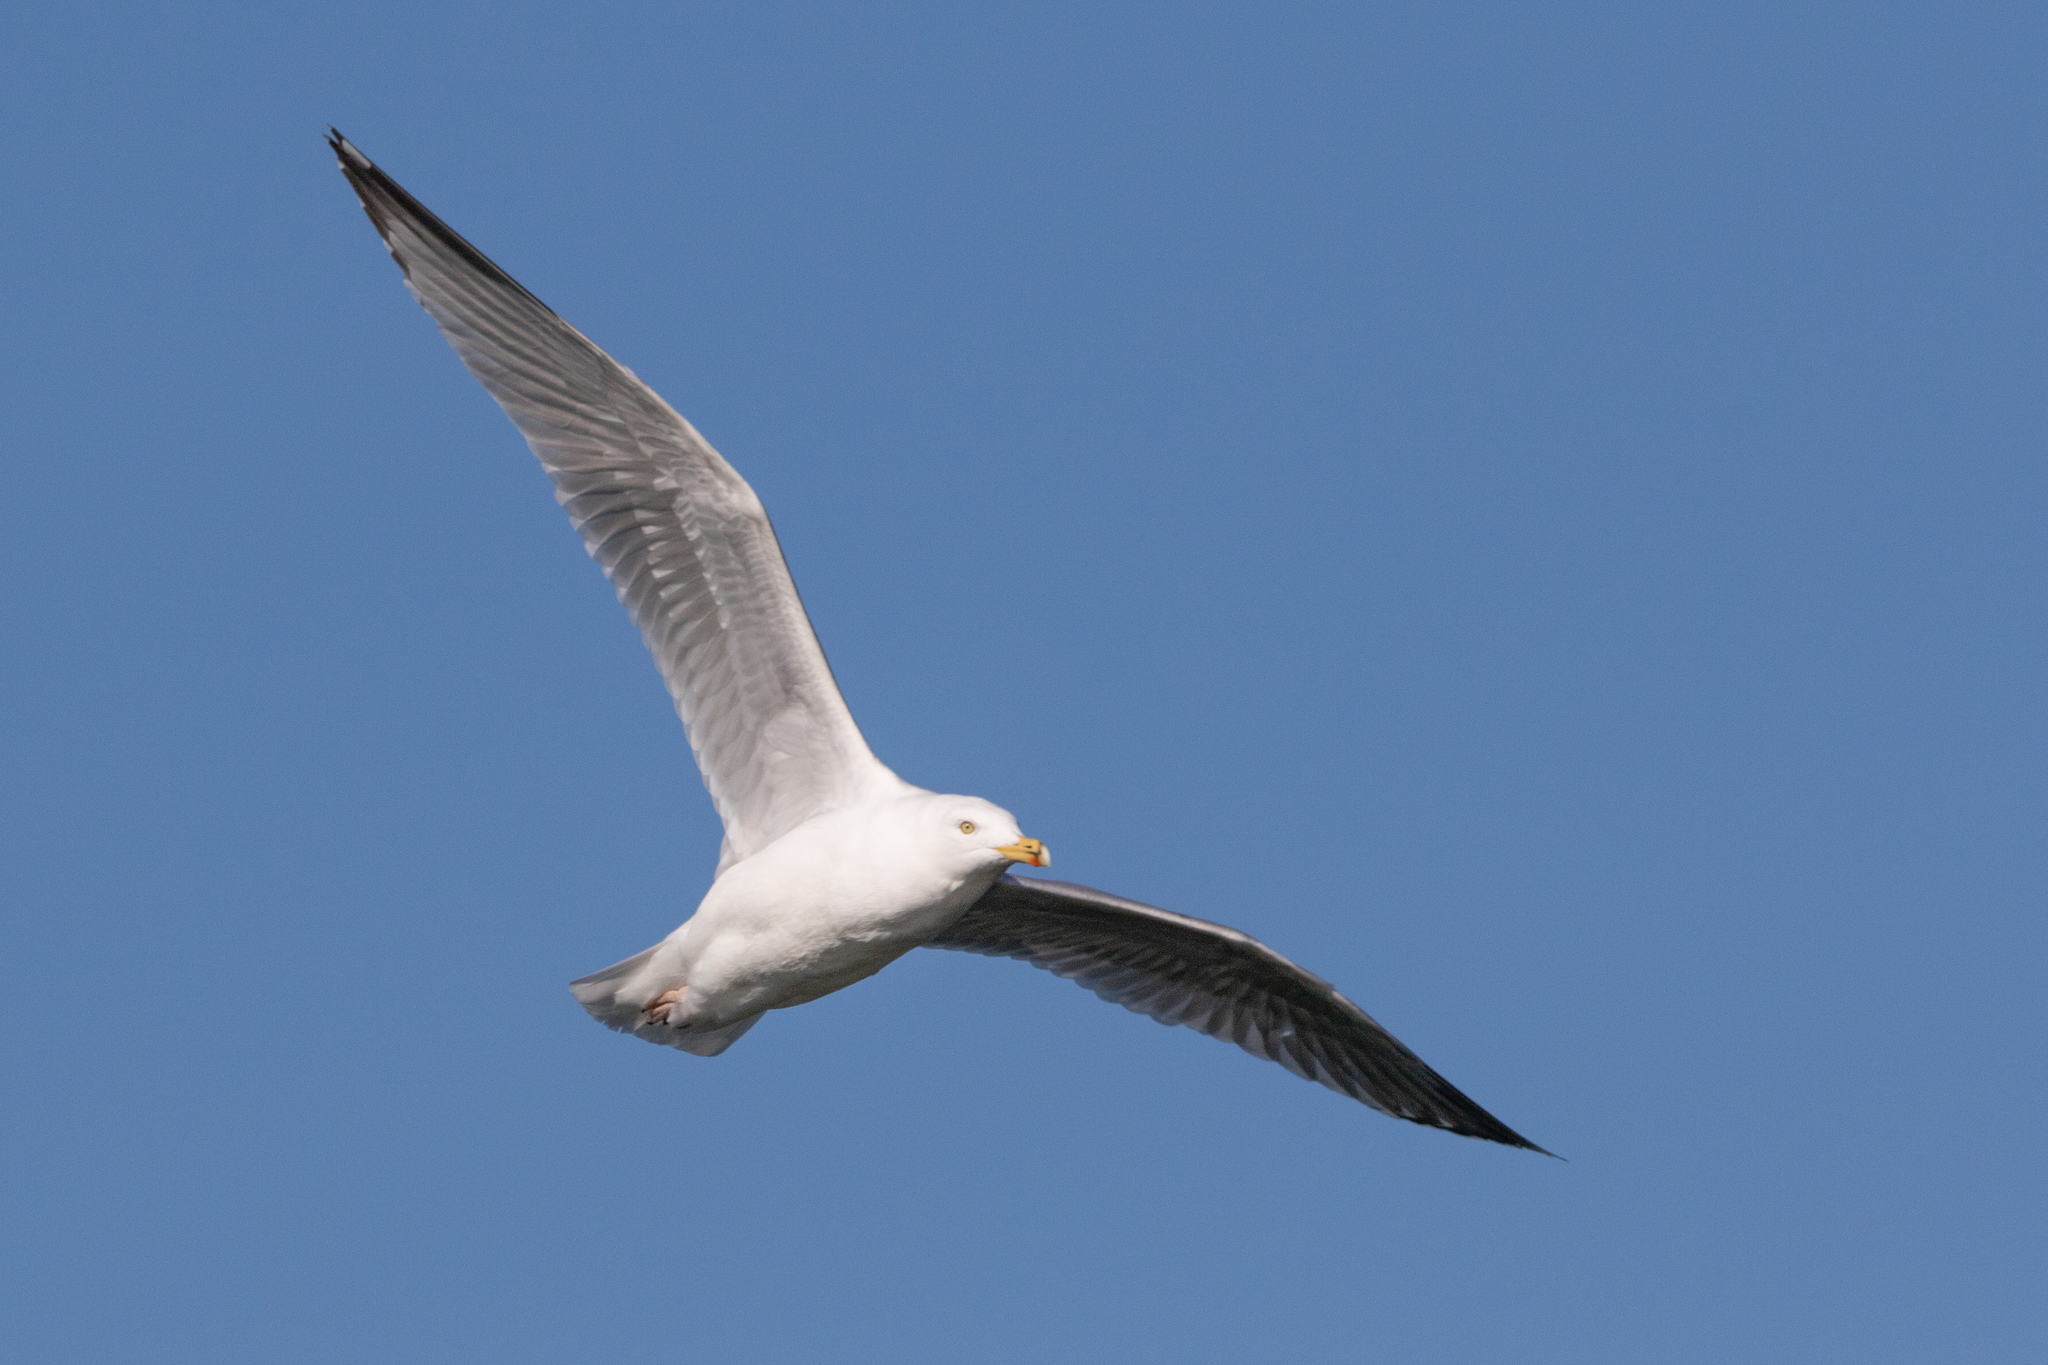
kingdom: Animalia
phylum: Chordata
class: Aves
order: Charadriiformes
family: Laridae
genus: Larus
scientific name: Larus argentatus
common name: Herring gull
